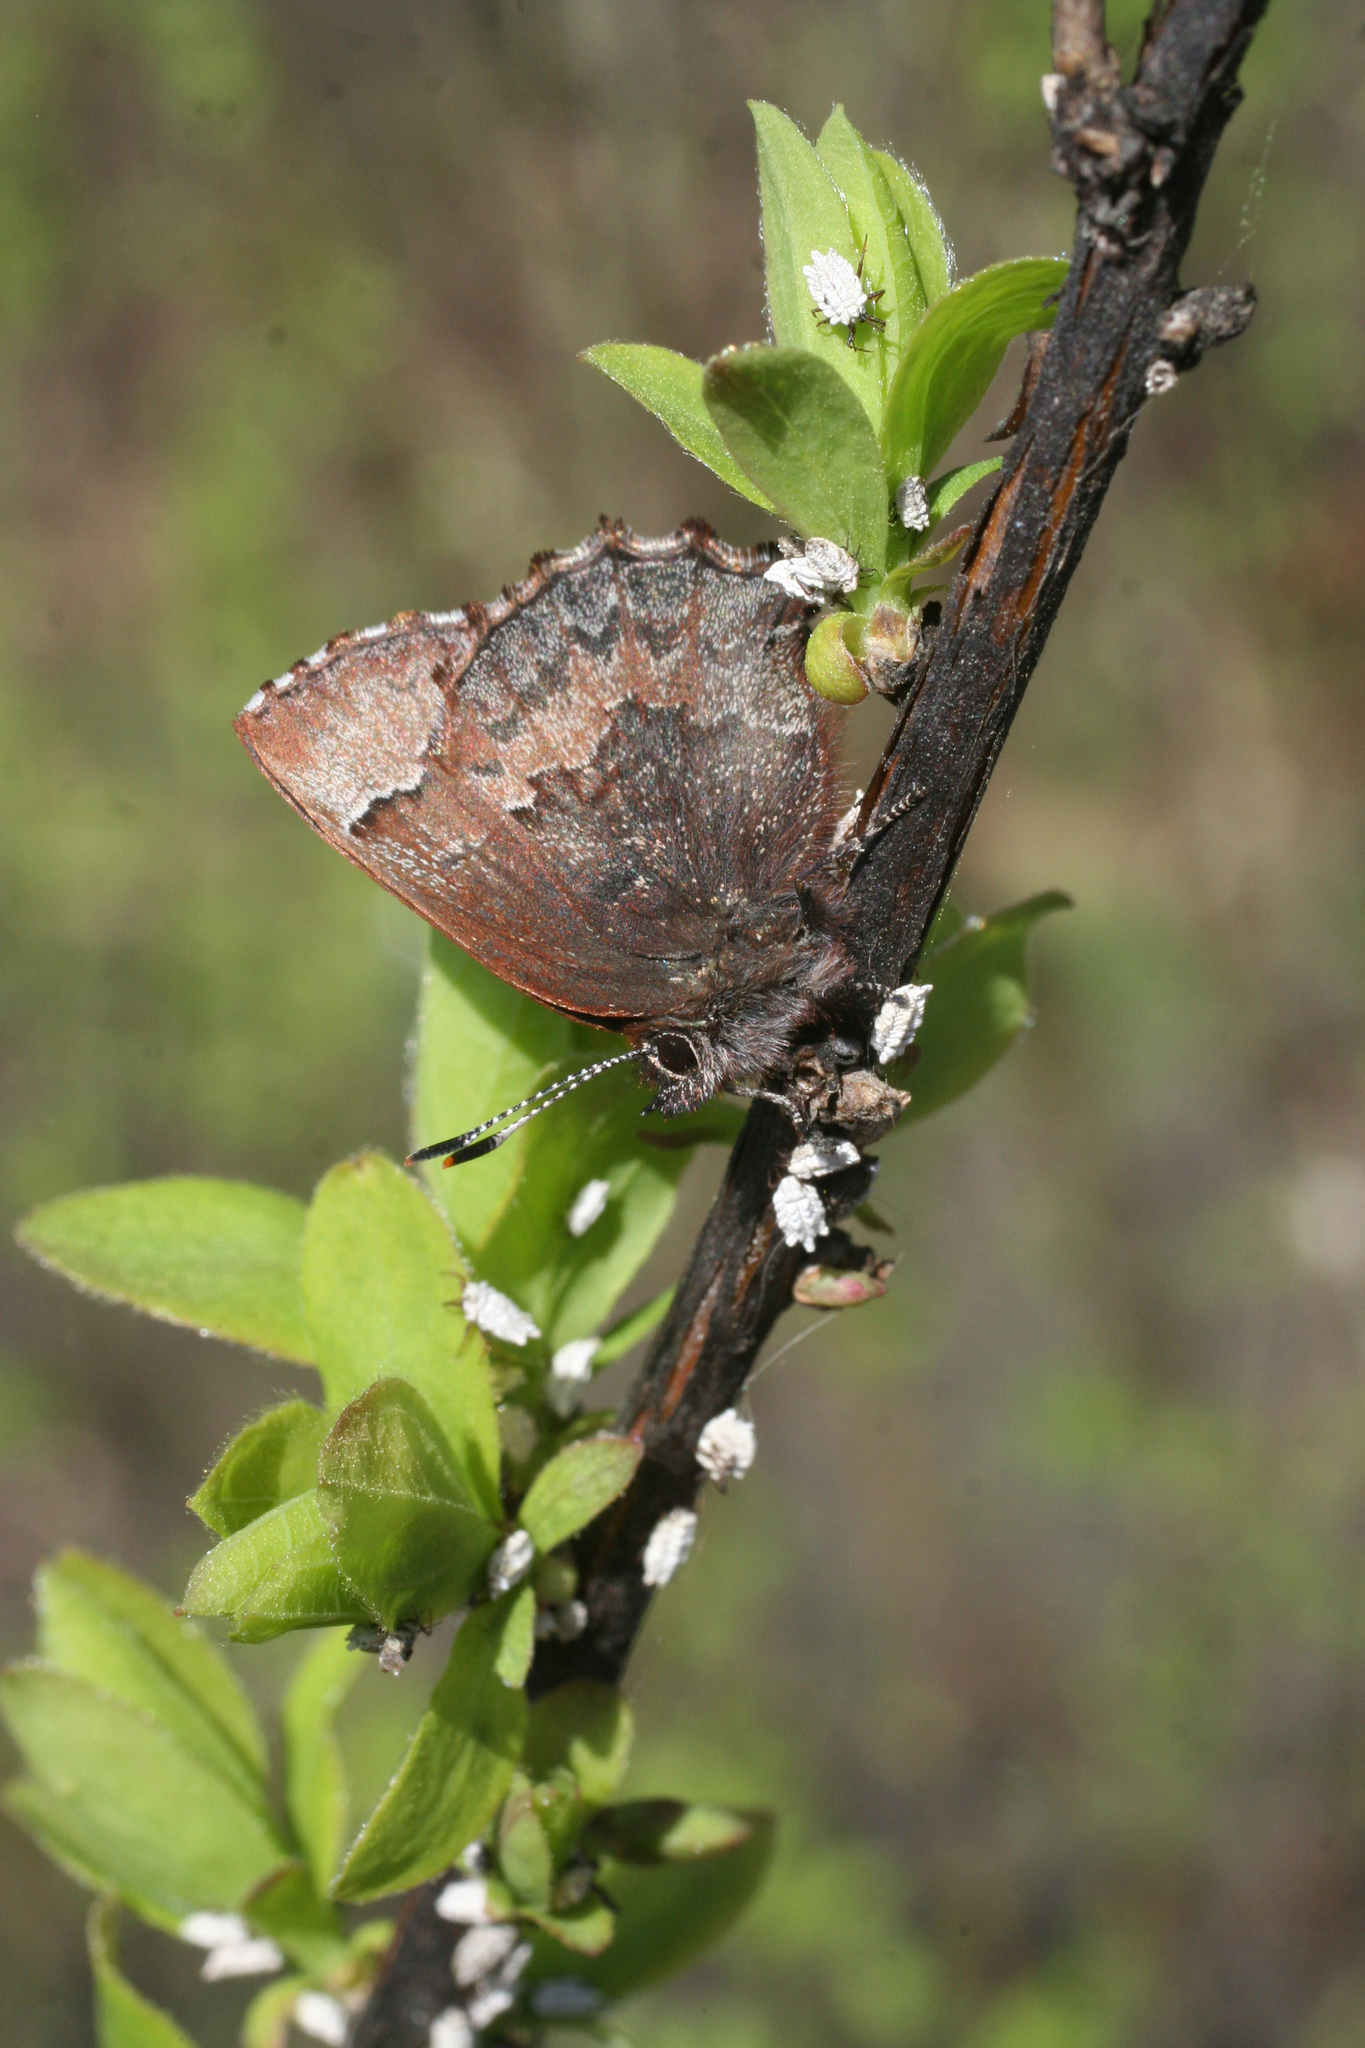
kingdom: Animalia
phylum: Arthropoda
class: Insecta
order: Lepidoptera
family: Lycaenidae
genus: Ginzia
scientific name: Ginzia Ahlbergia frivaldszkyi
